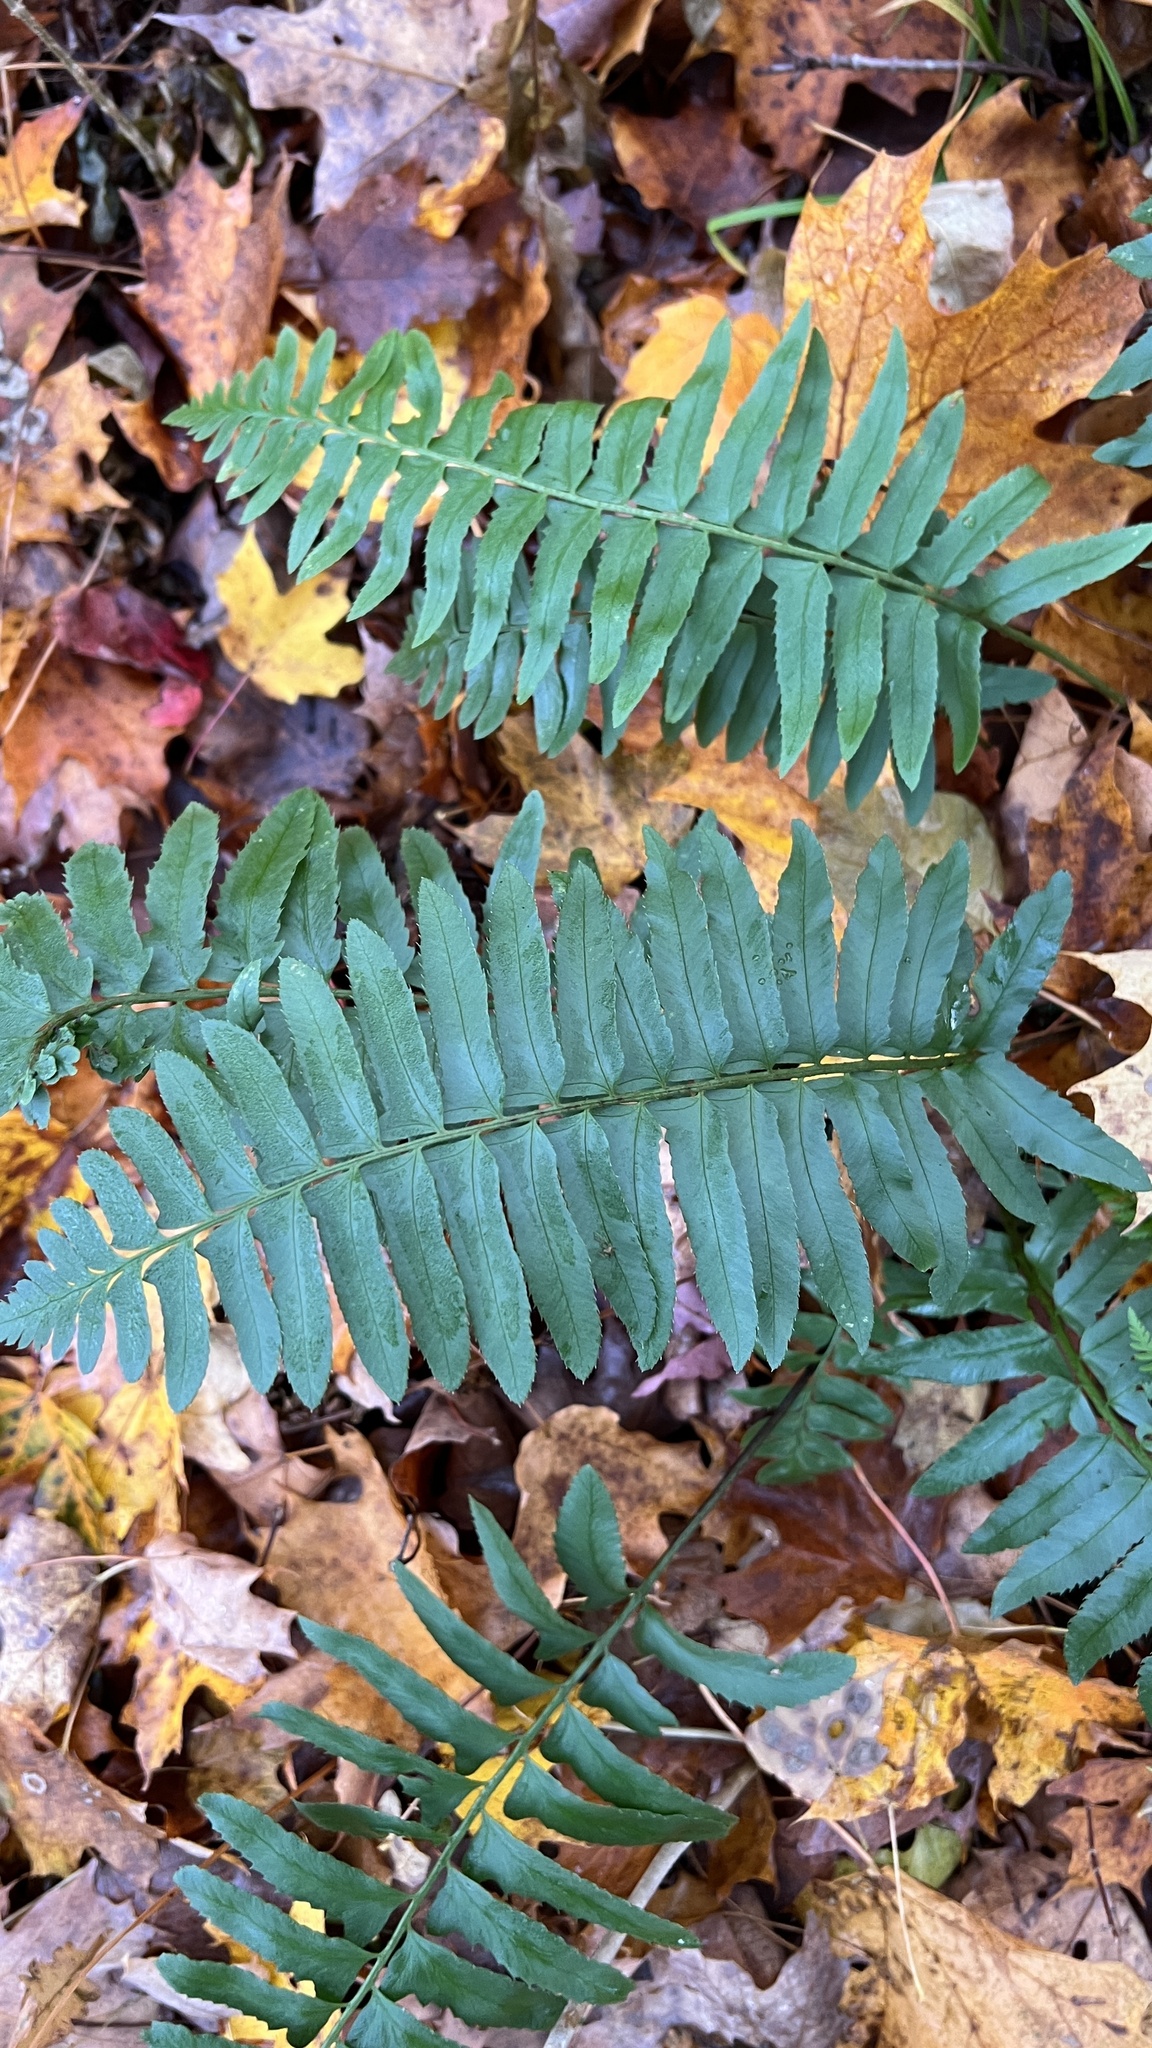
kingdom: Plantae
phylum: Tracheophyta
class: Polypodiopsida
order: Polypodiales
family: Dryopteridaceae
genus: Polystichum
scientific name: Polystichum acrostichoides
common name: Christmas fern
